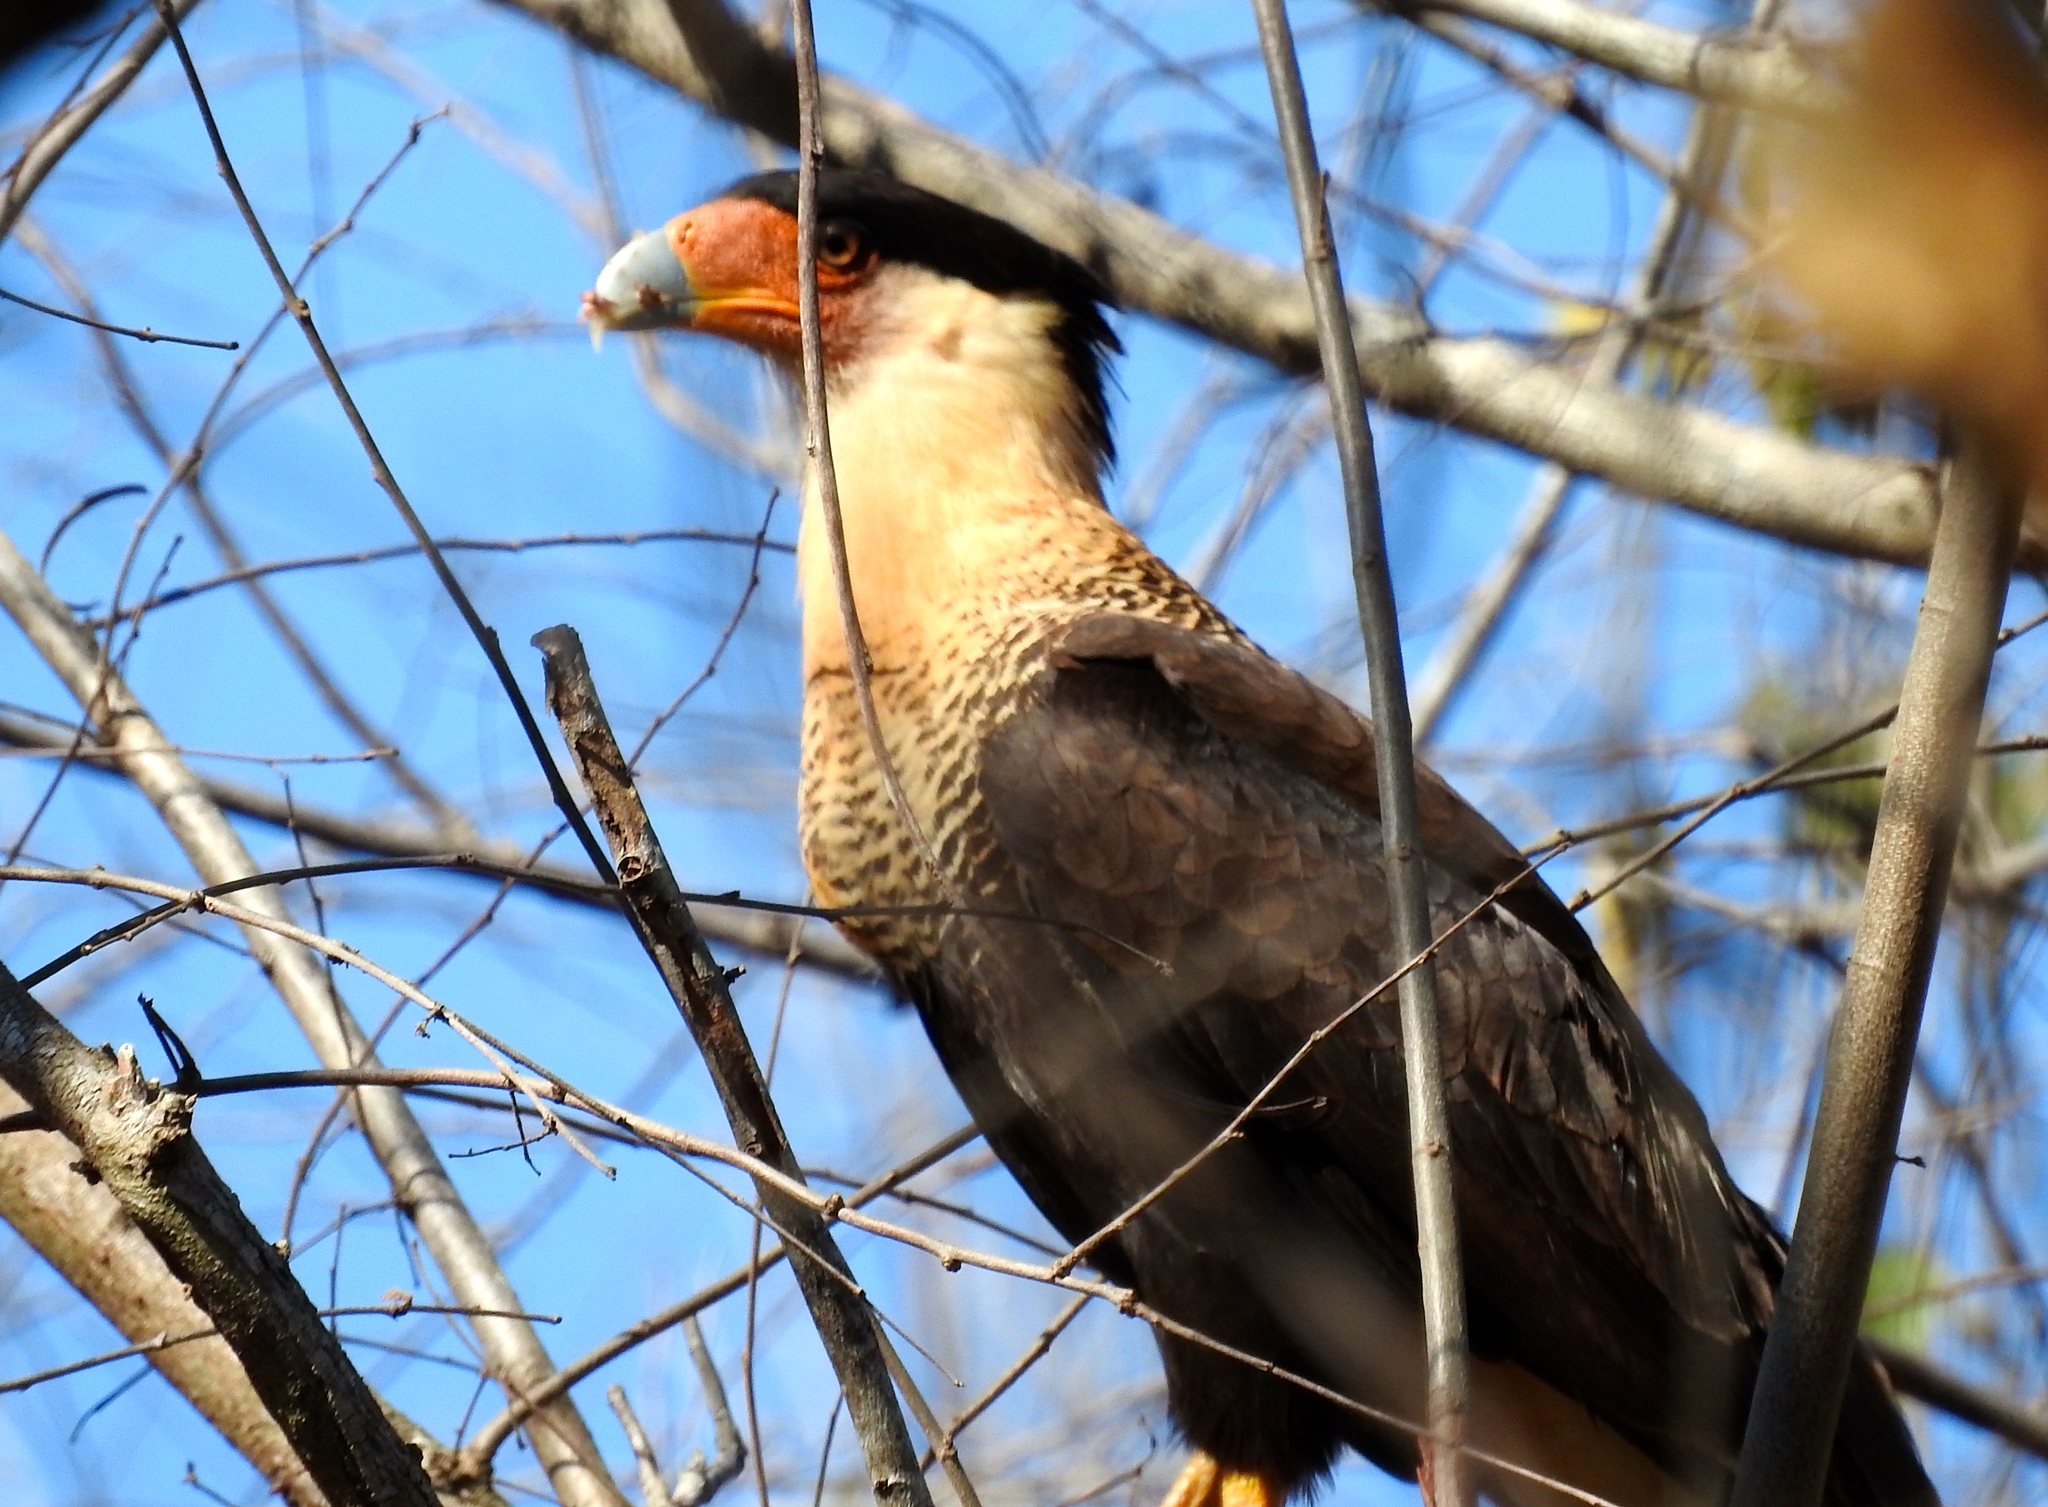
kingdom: Animalia
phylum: Chordata
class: Aves
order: Falconiformes
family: Falconidae
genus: Caracara
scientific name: Caracara plancus
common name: Southern caracara
